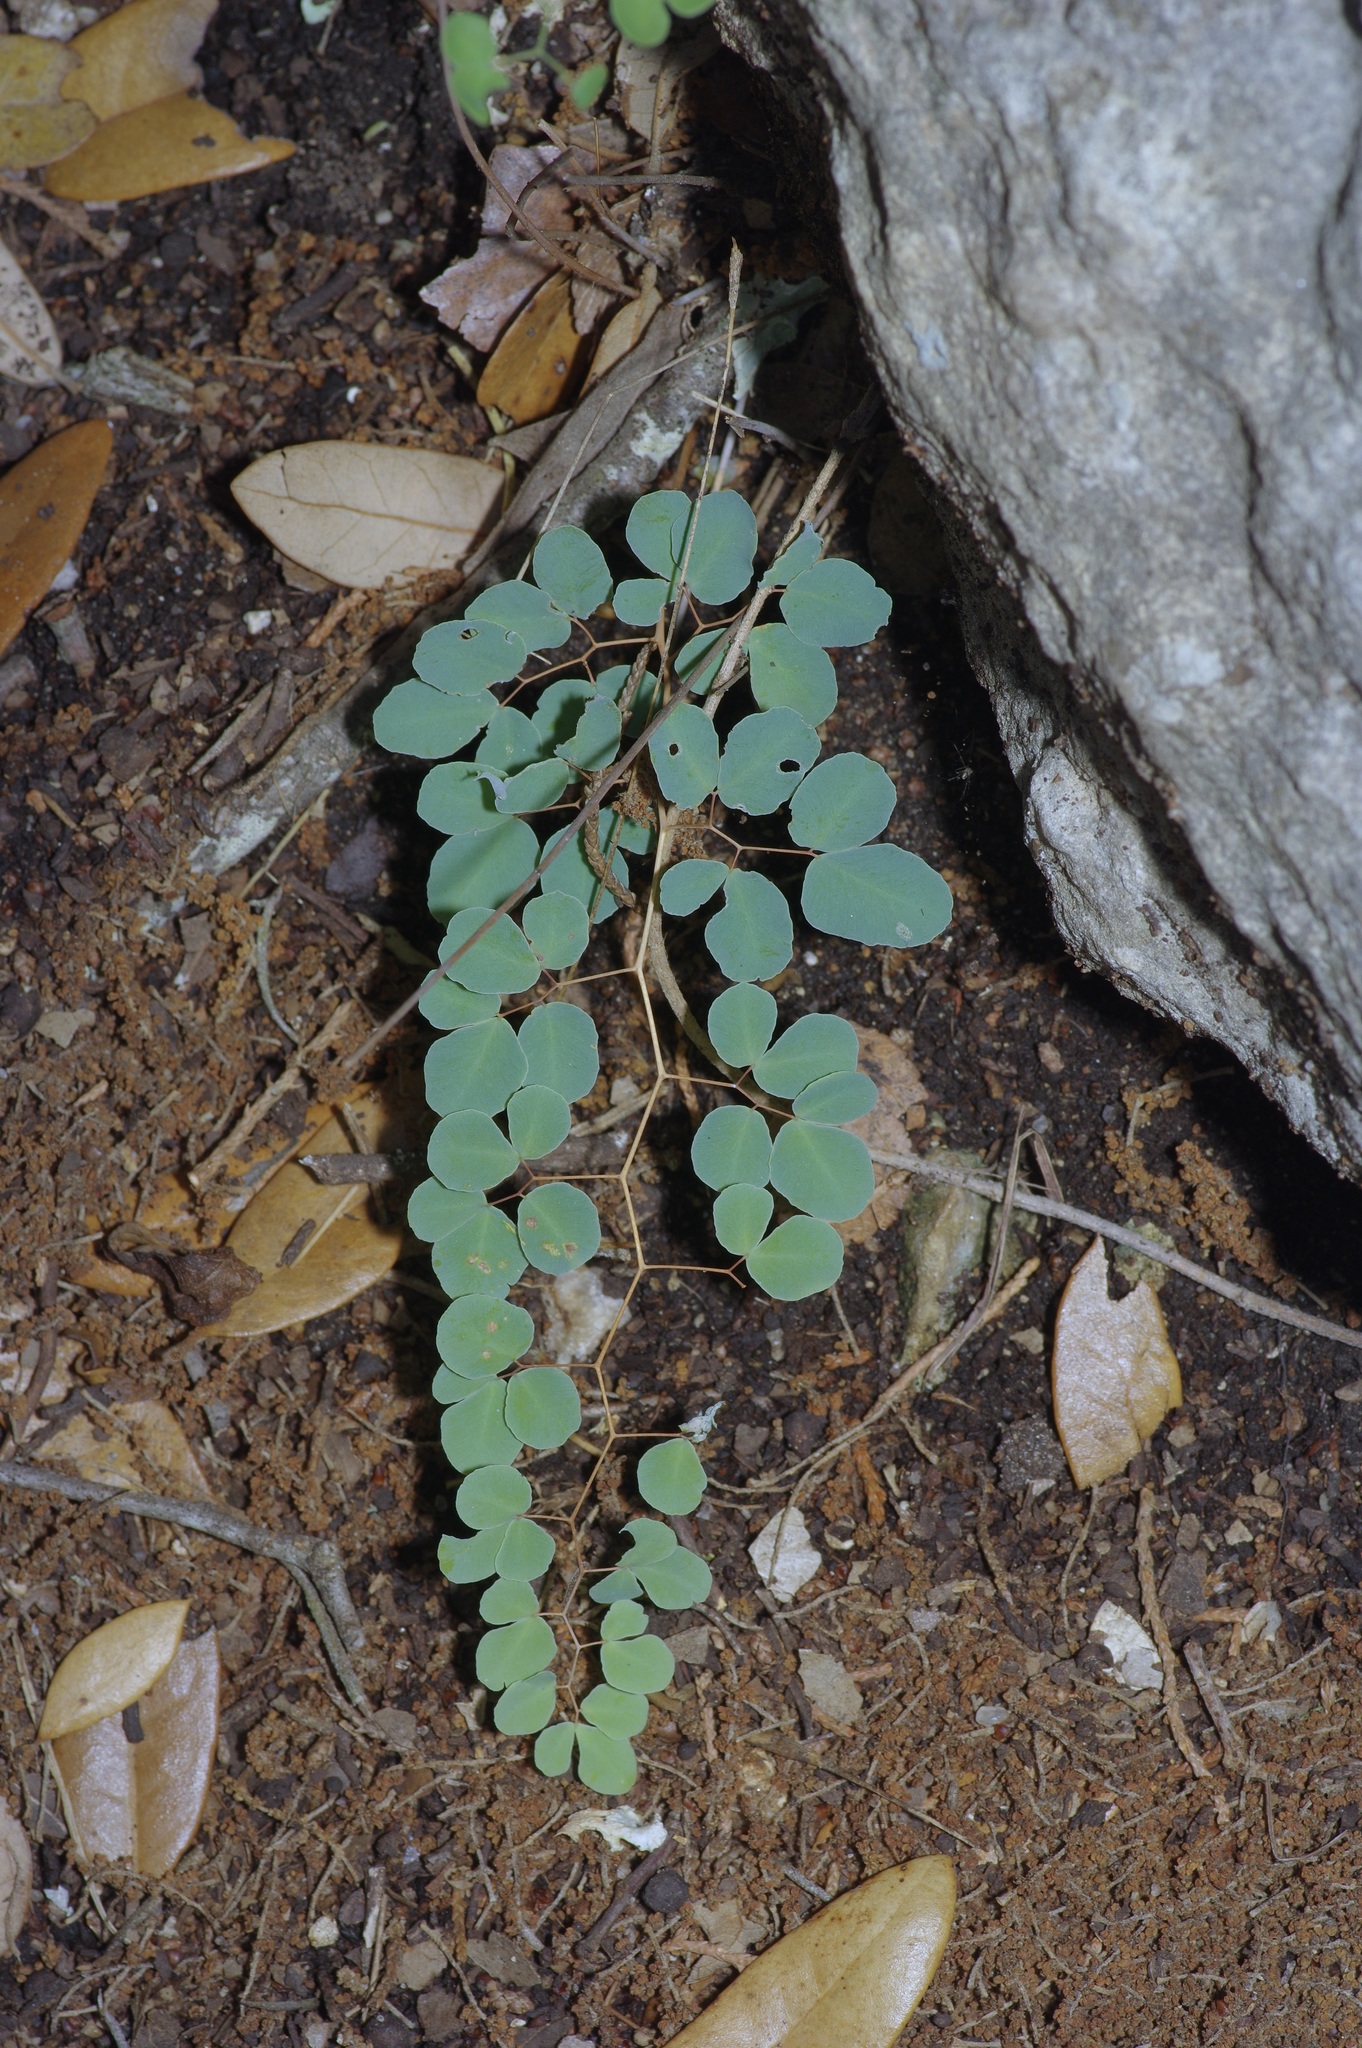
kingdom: Plantae
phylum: Tracheophyta
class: Polypodiopsida
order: Polypodiales
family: Pteridaceae
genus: Pellaea
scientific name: Pellaea ovata
